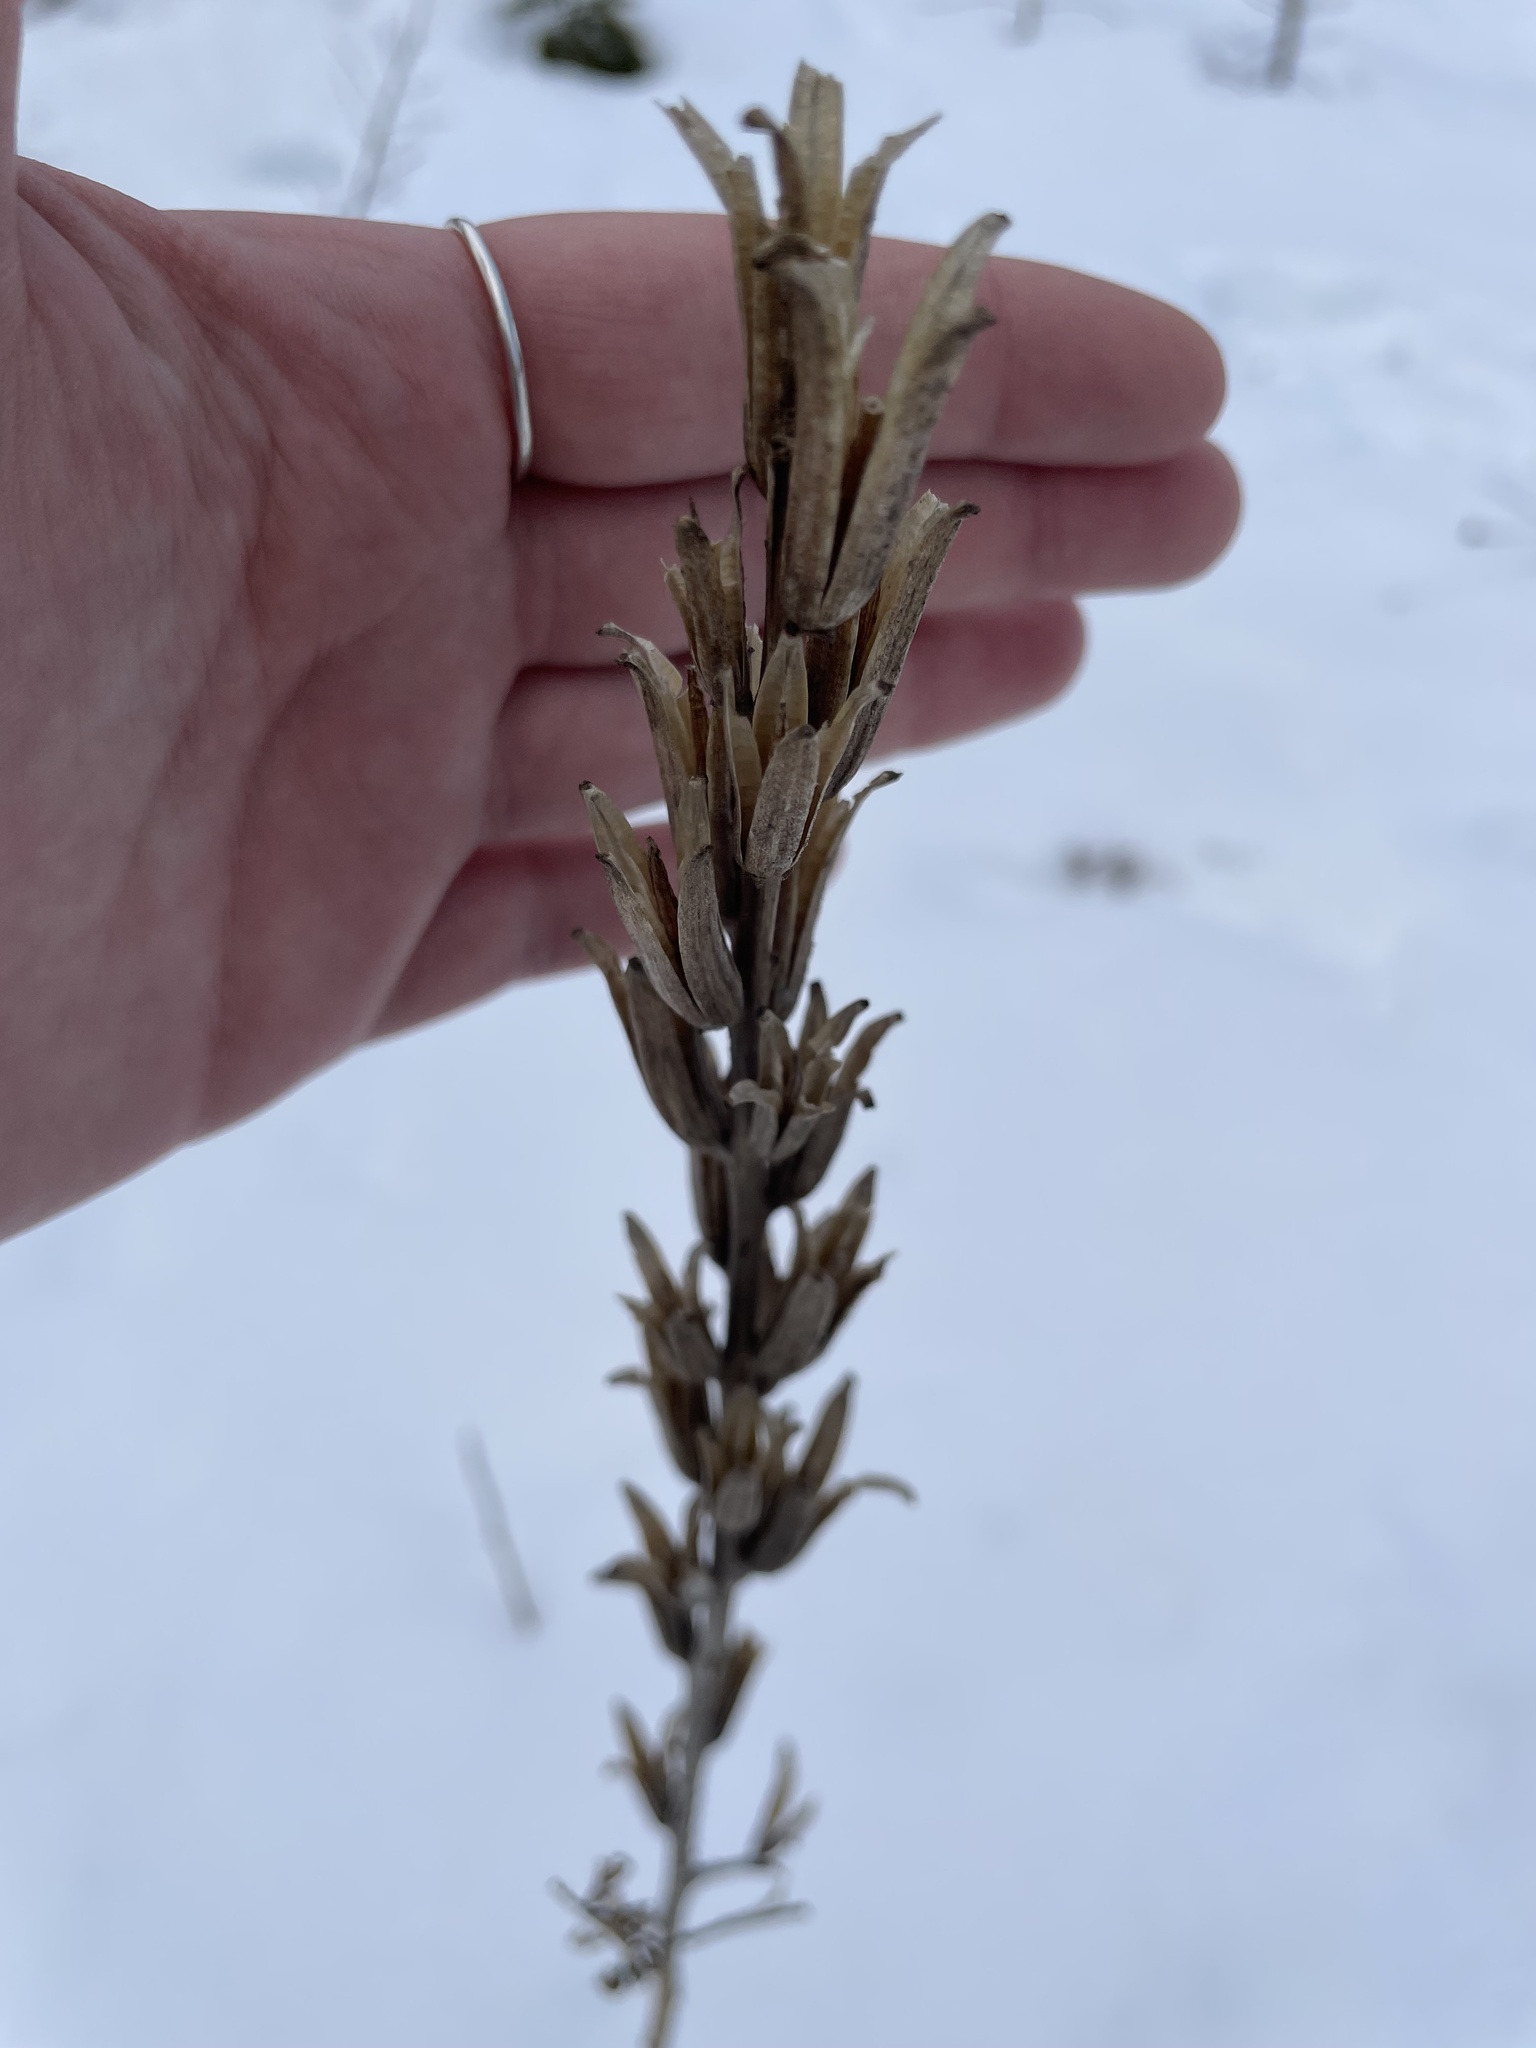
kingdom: Plantae
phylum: Tracheophyta
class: Magnoliopsida
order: Myrtales
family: Onagraceae
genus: Oenothera
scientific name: Oenothera biennis
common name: Common evening-primrose
